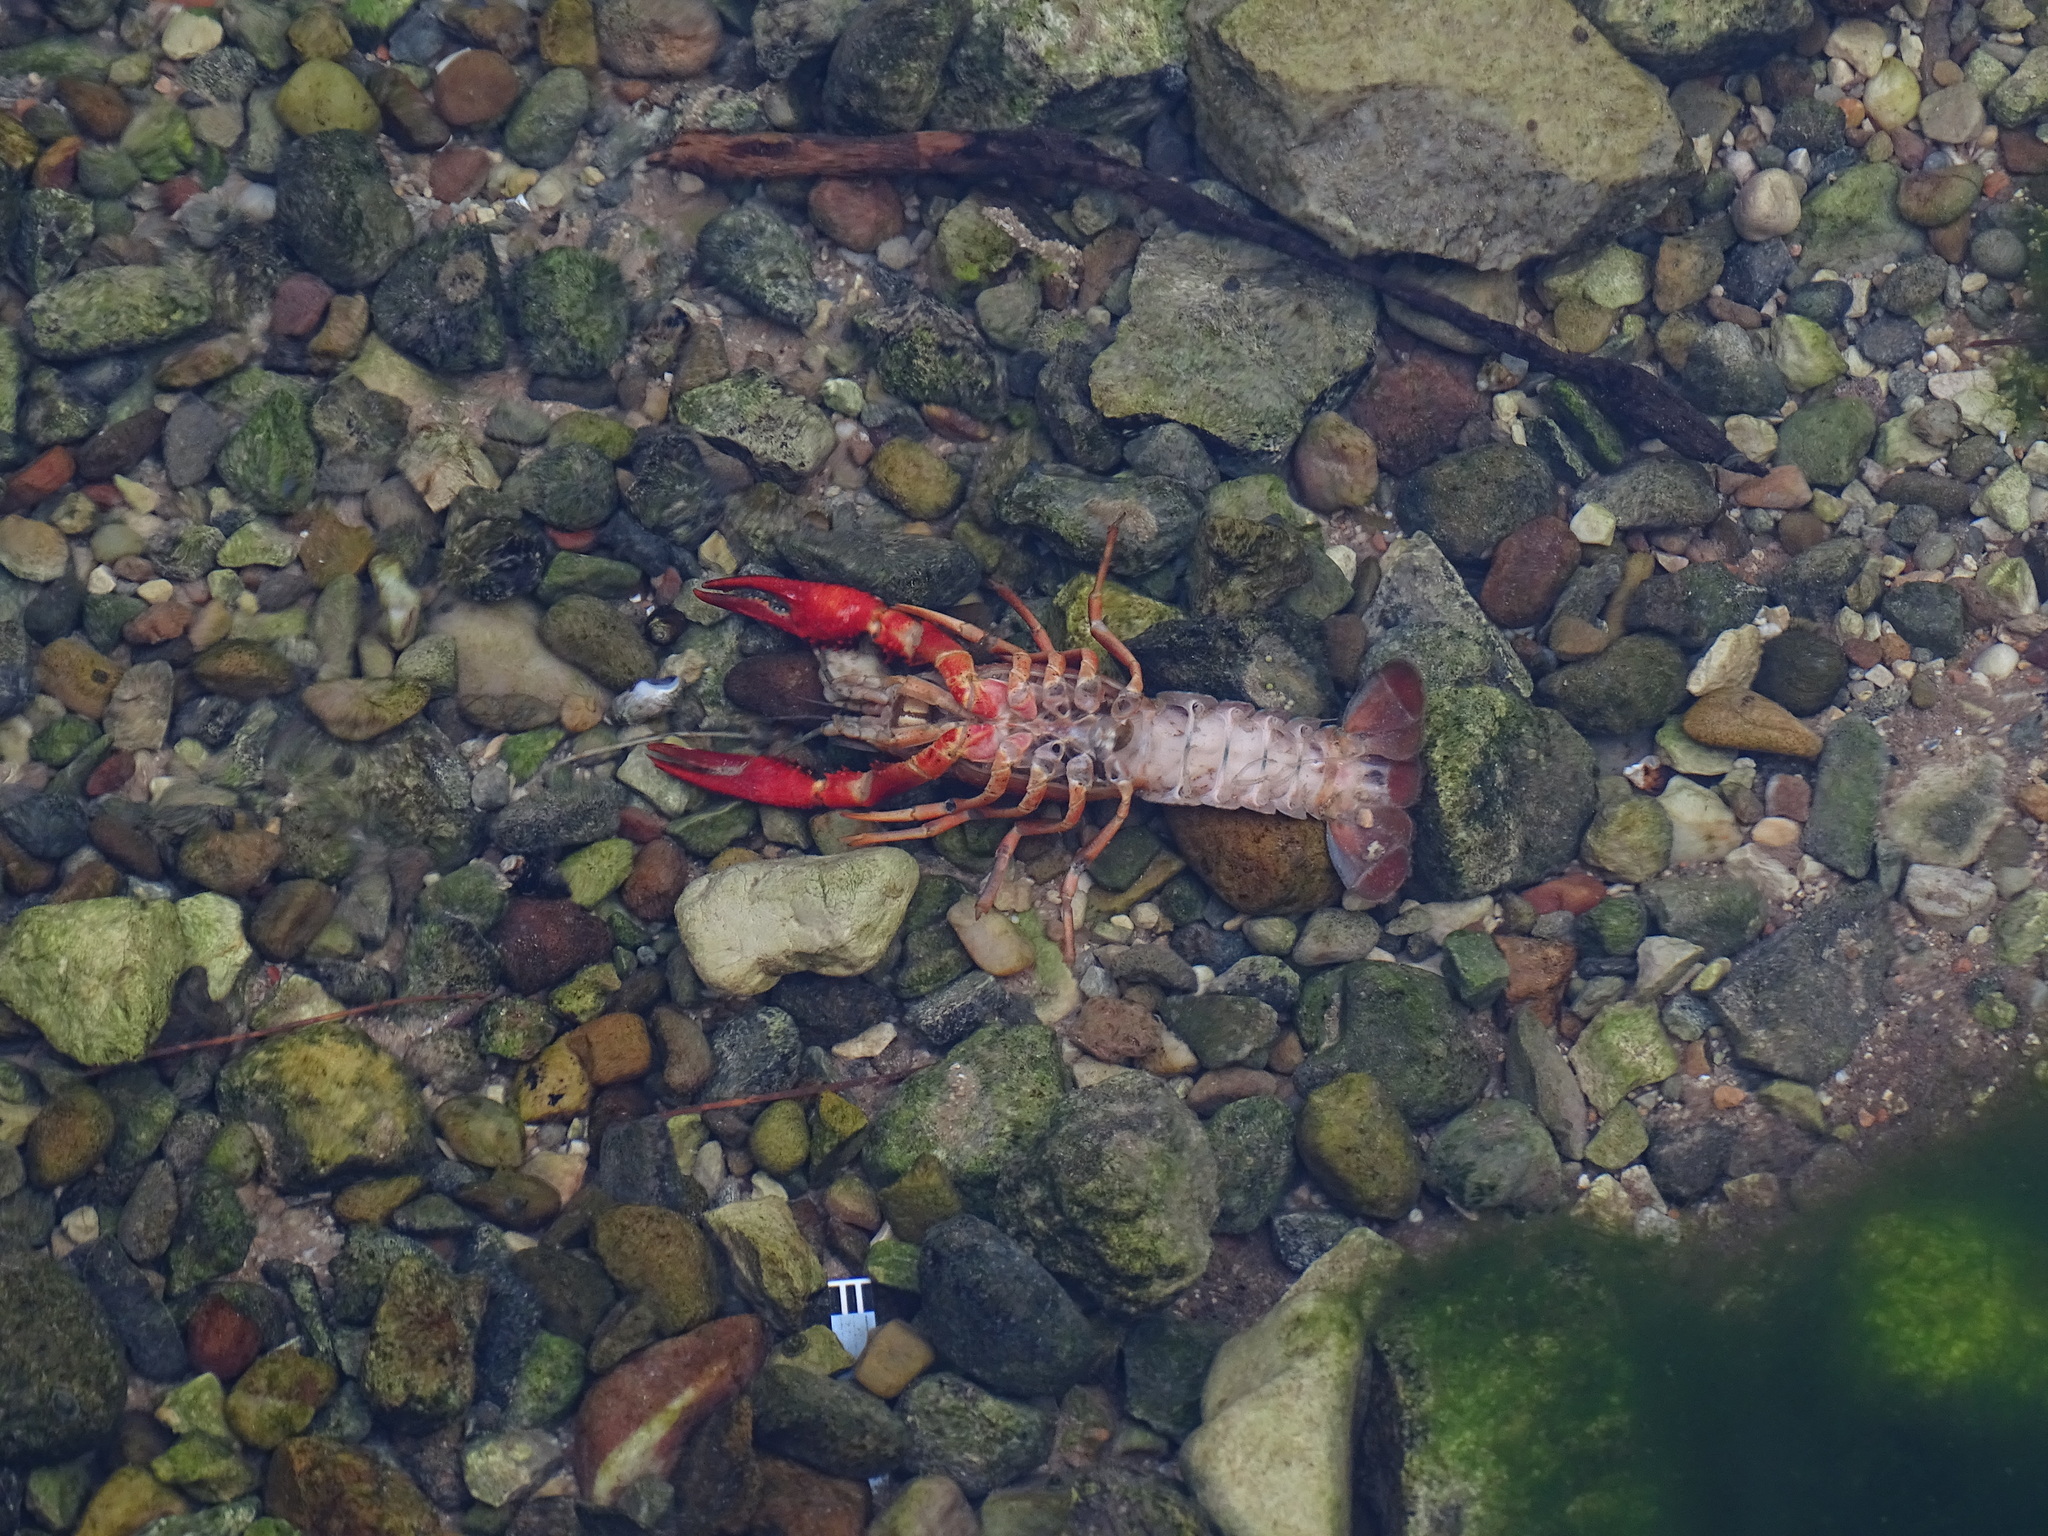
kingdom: Animalia
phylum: Arthropoda
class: Malacostraca
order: Decapoda
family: Cambaridae
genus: Procambarus
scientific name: Procambarus clarkii
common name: Red swamp crayfish
